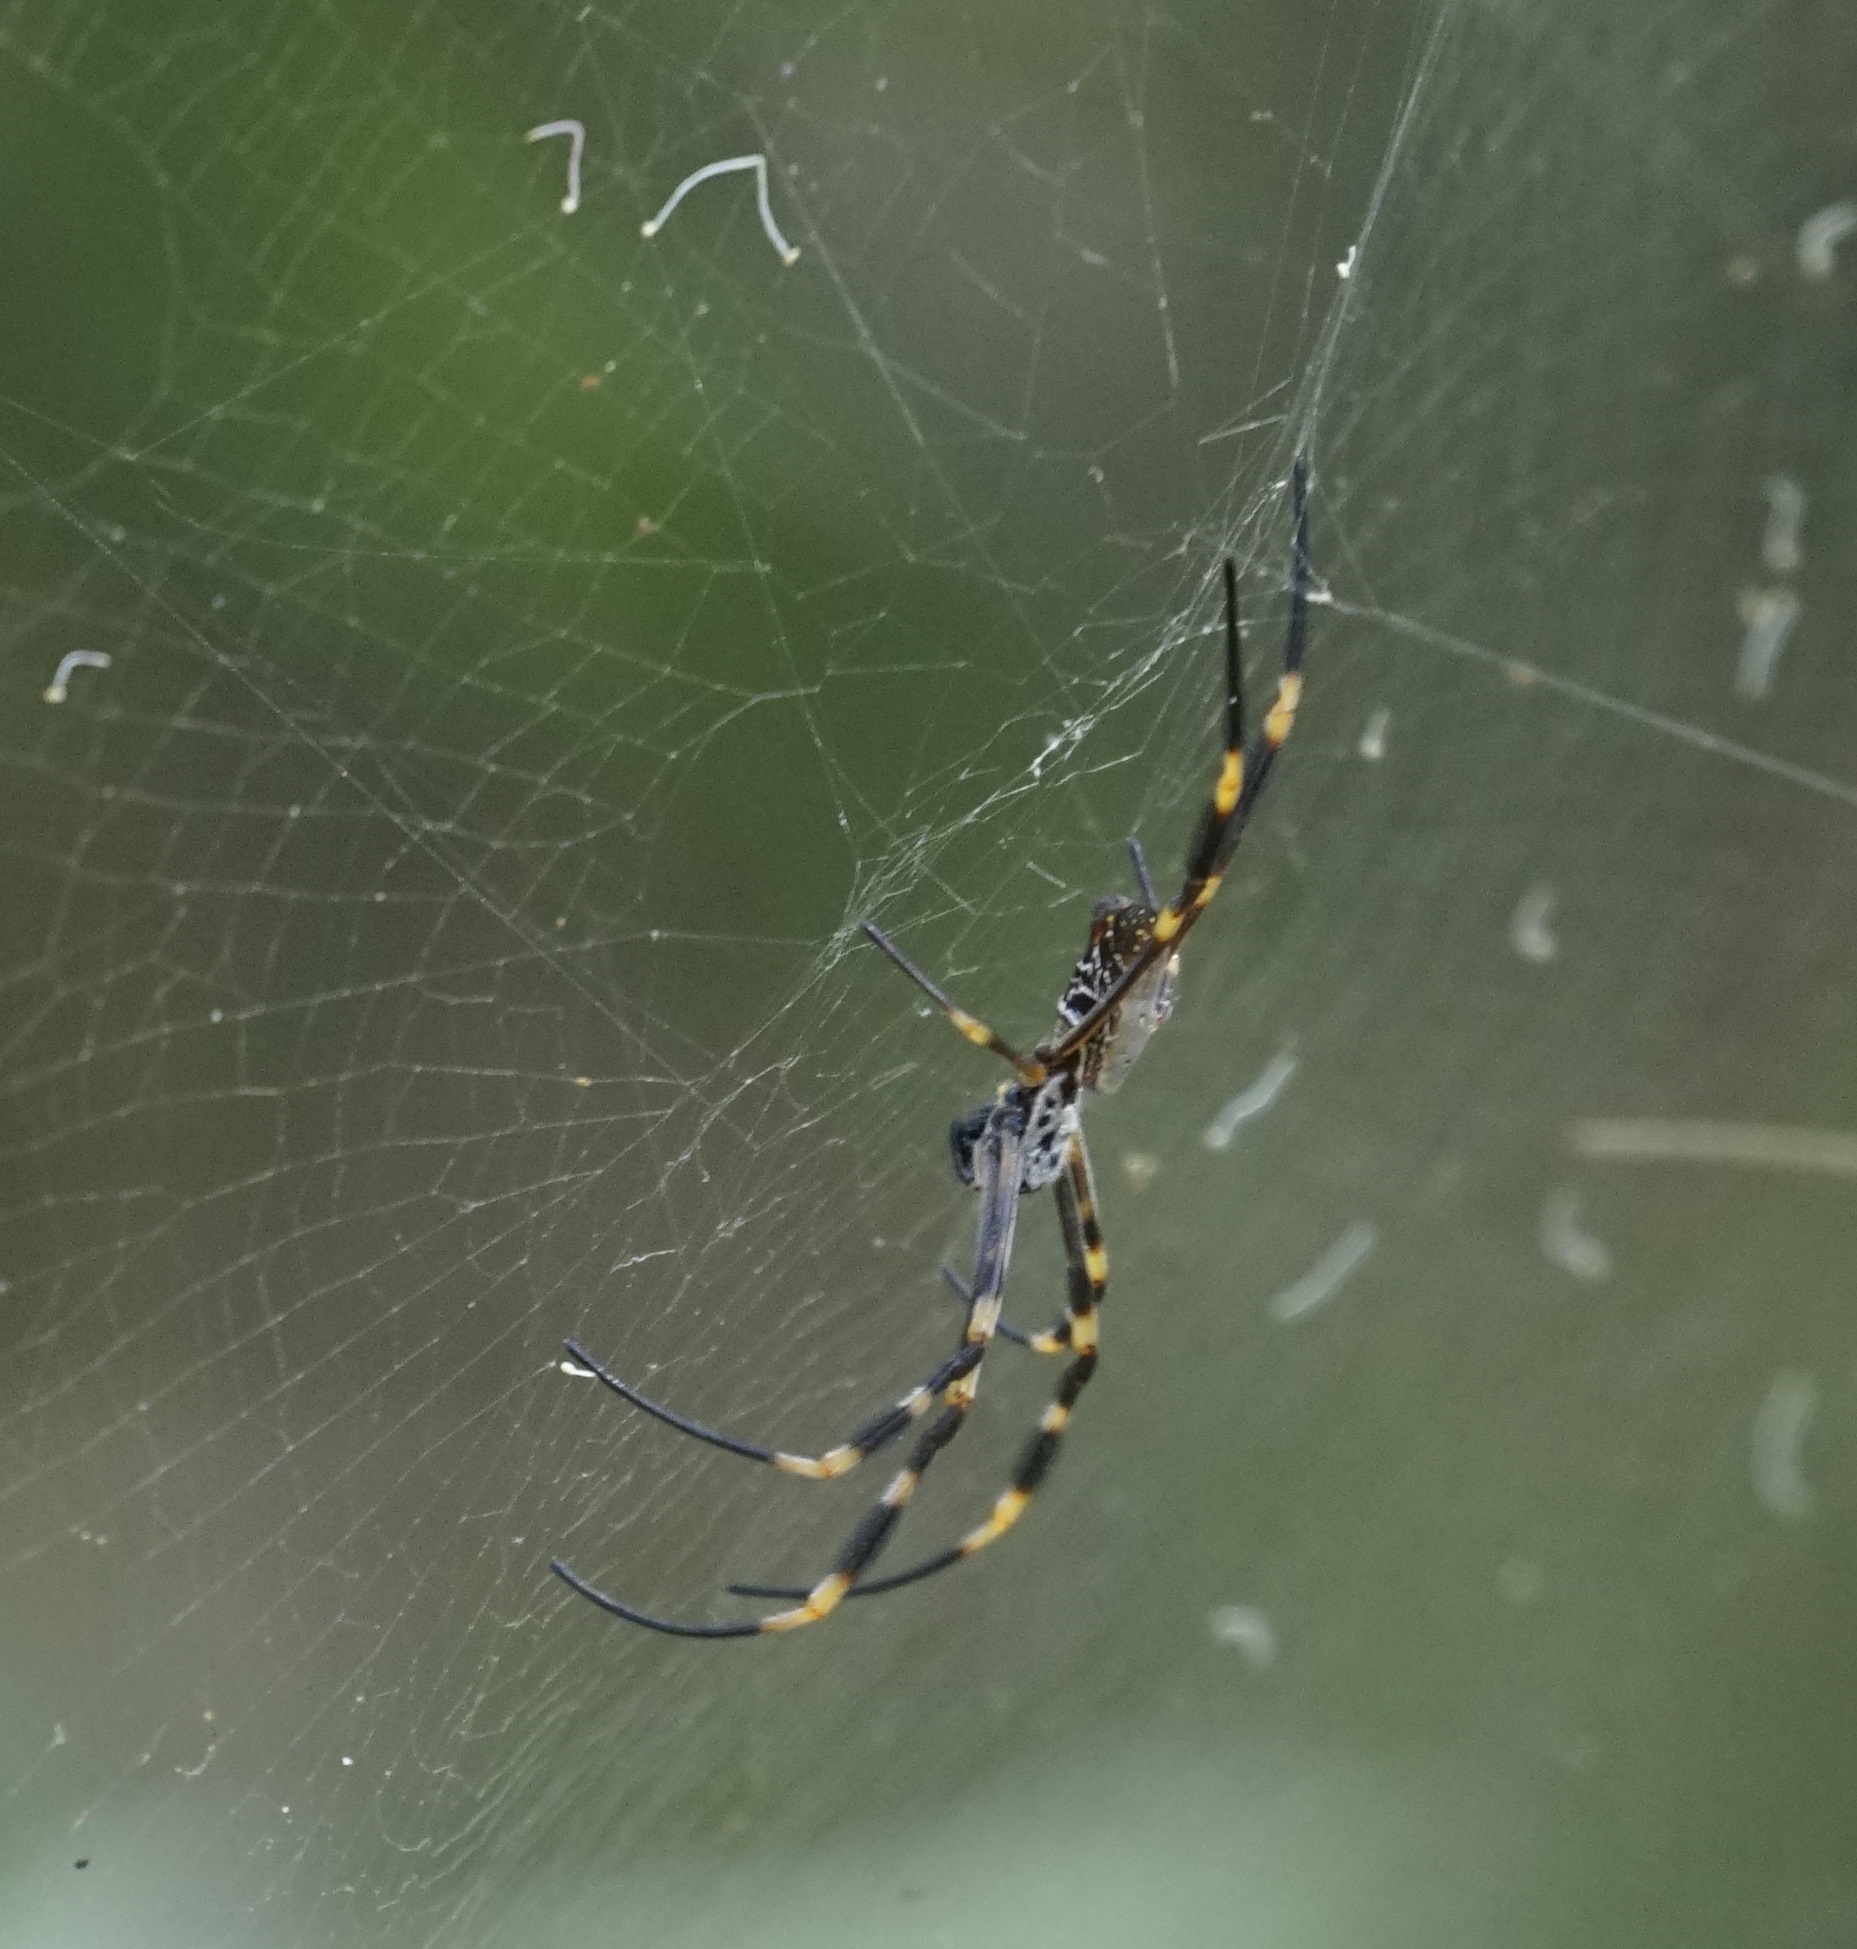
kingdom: Animalia
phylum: Arthropoda
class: Arachnida
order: Araneae
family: Araneidae
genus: Trichonephila
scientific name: Trichonephila plumipes
